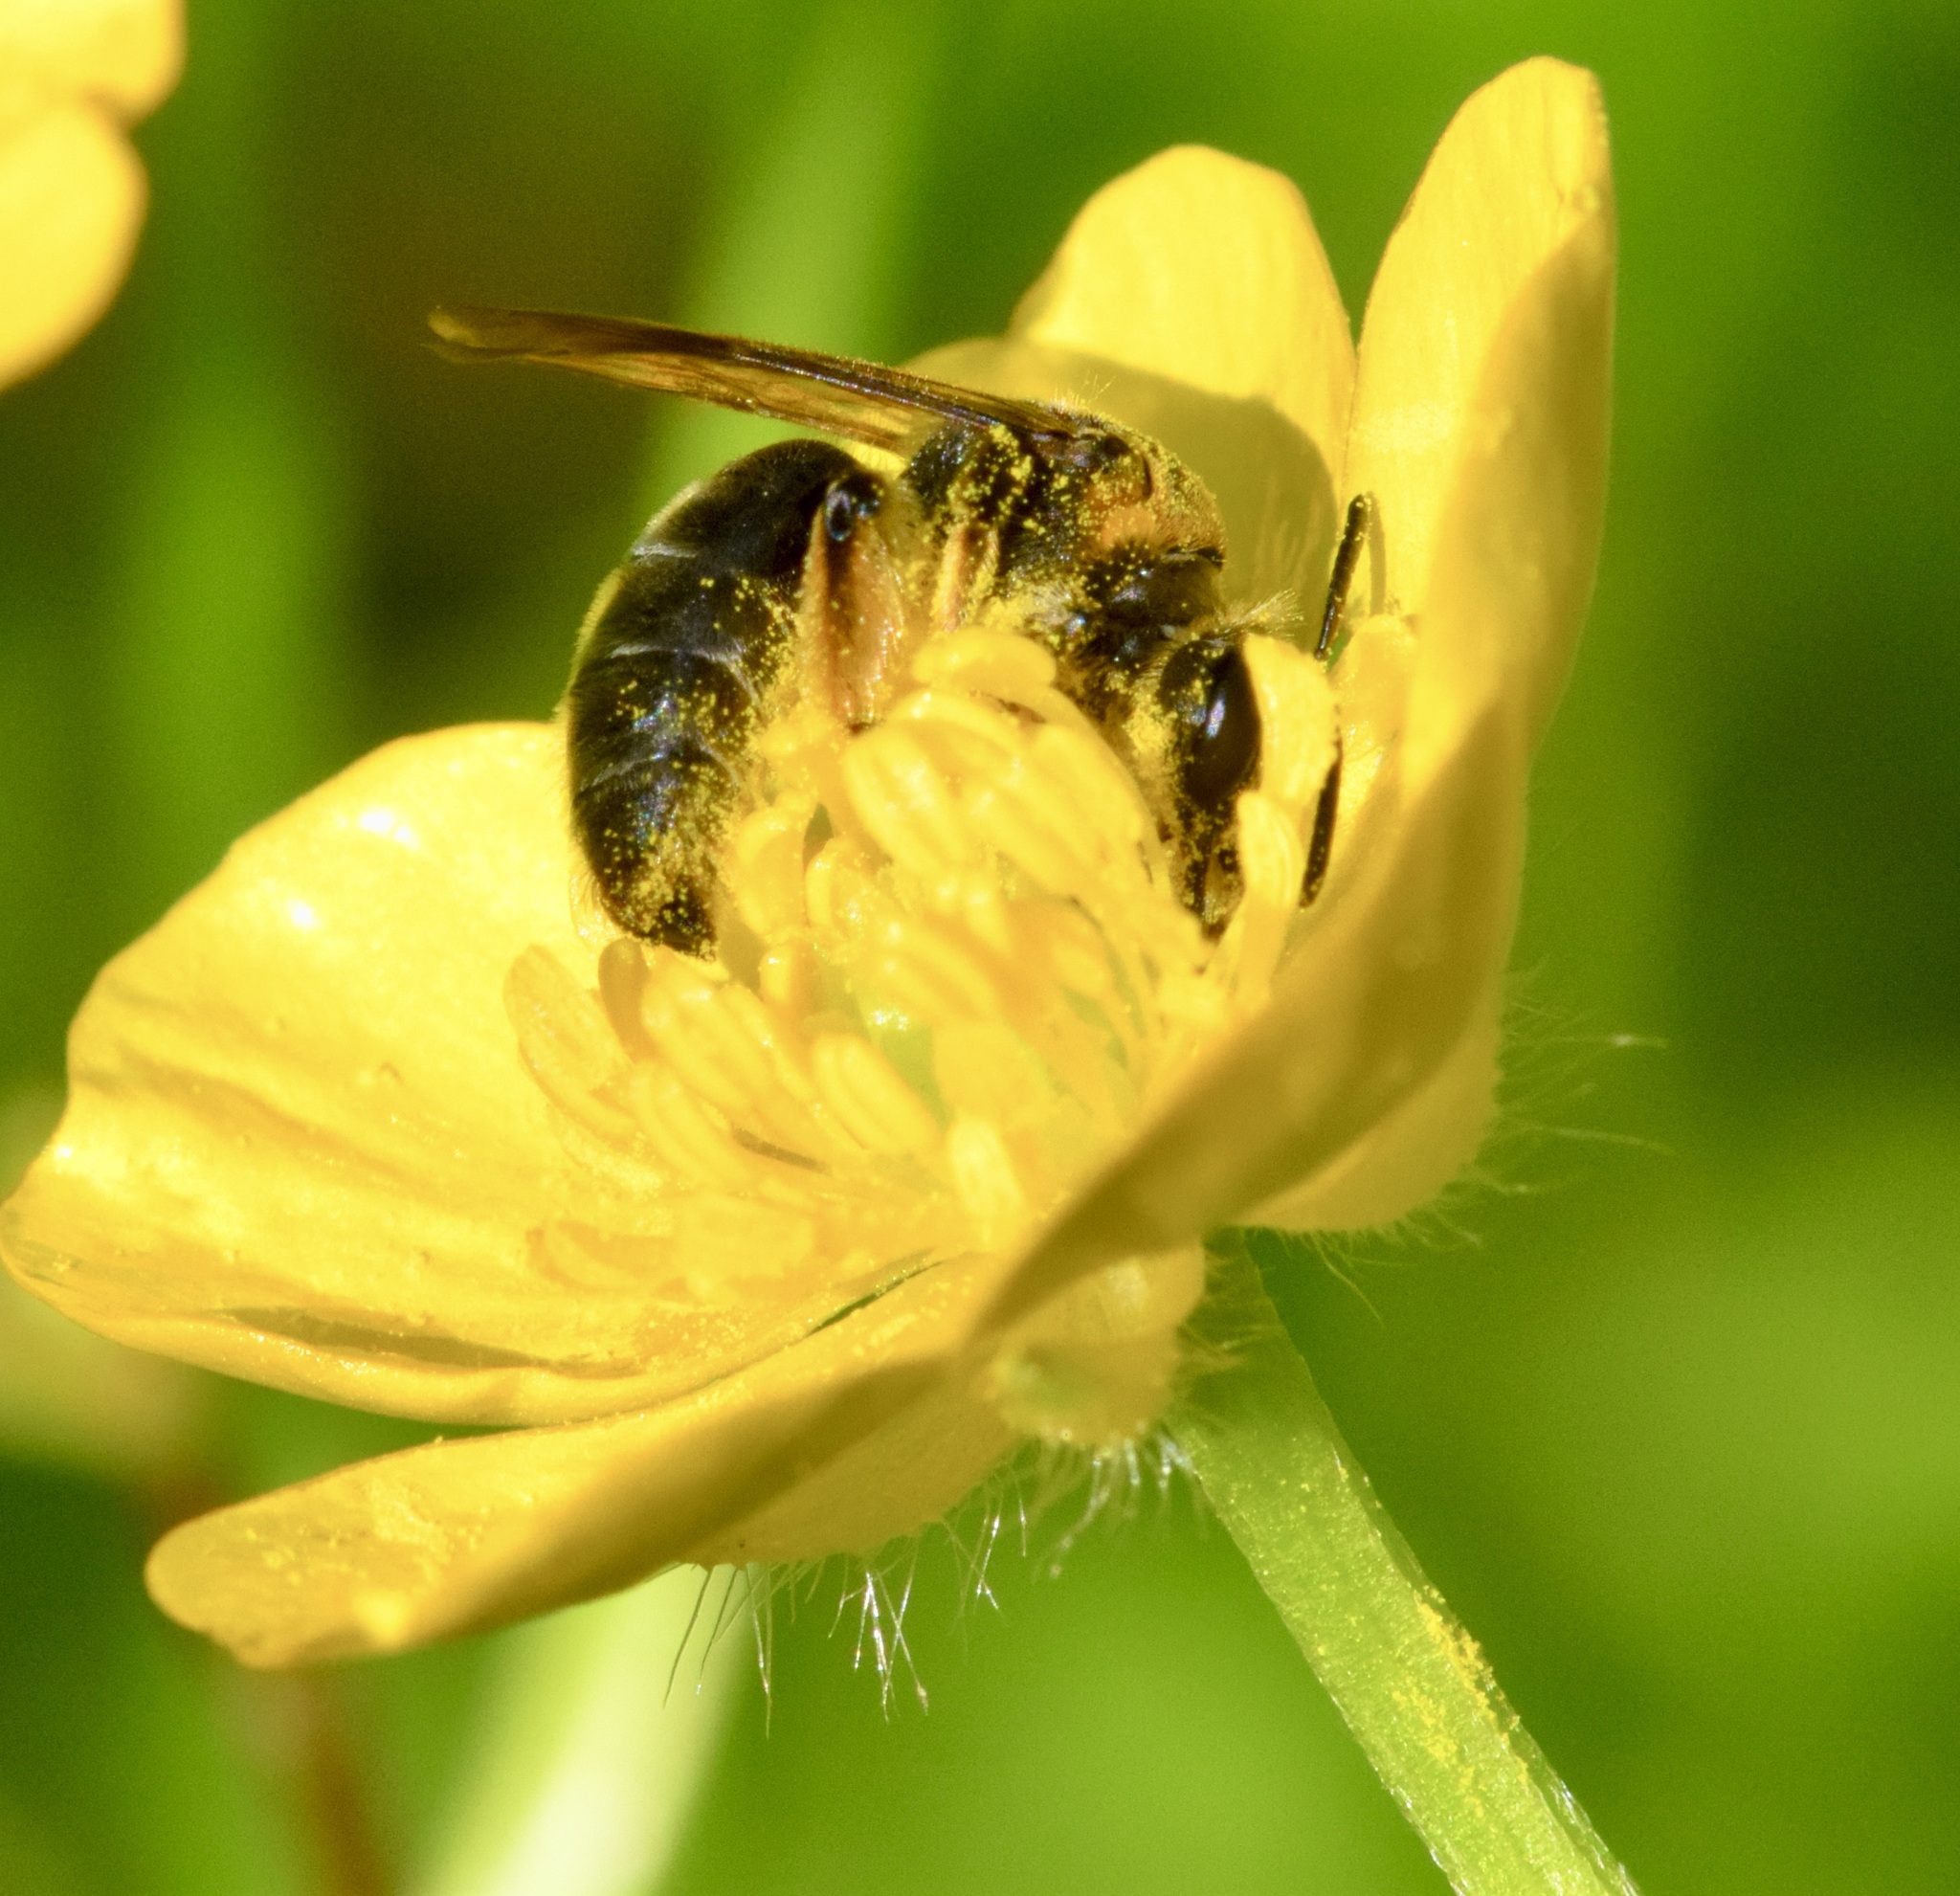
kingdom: Animalia
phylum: Arthropoda
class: Insecta
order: Hymenoptera
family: Andrenidae
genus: Andrena
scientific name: Andrena alleghaniensis
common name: Allegheny mining bee
